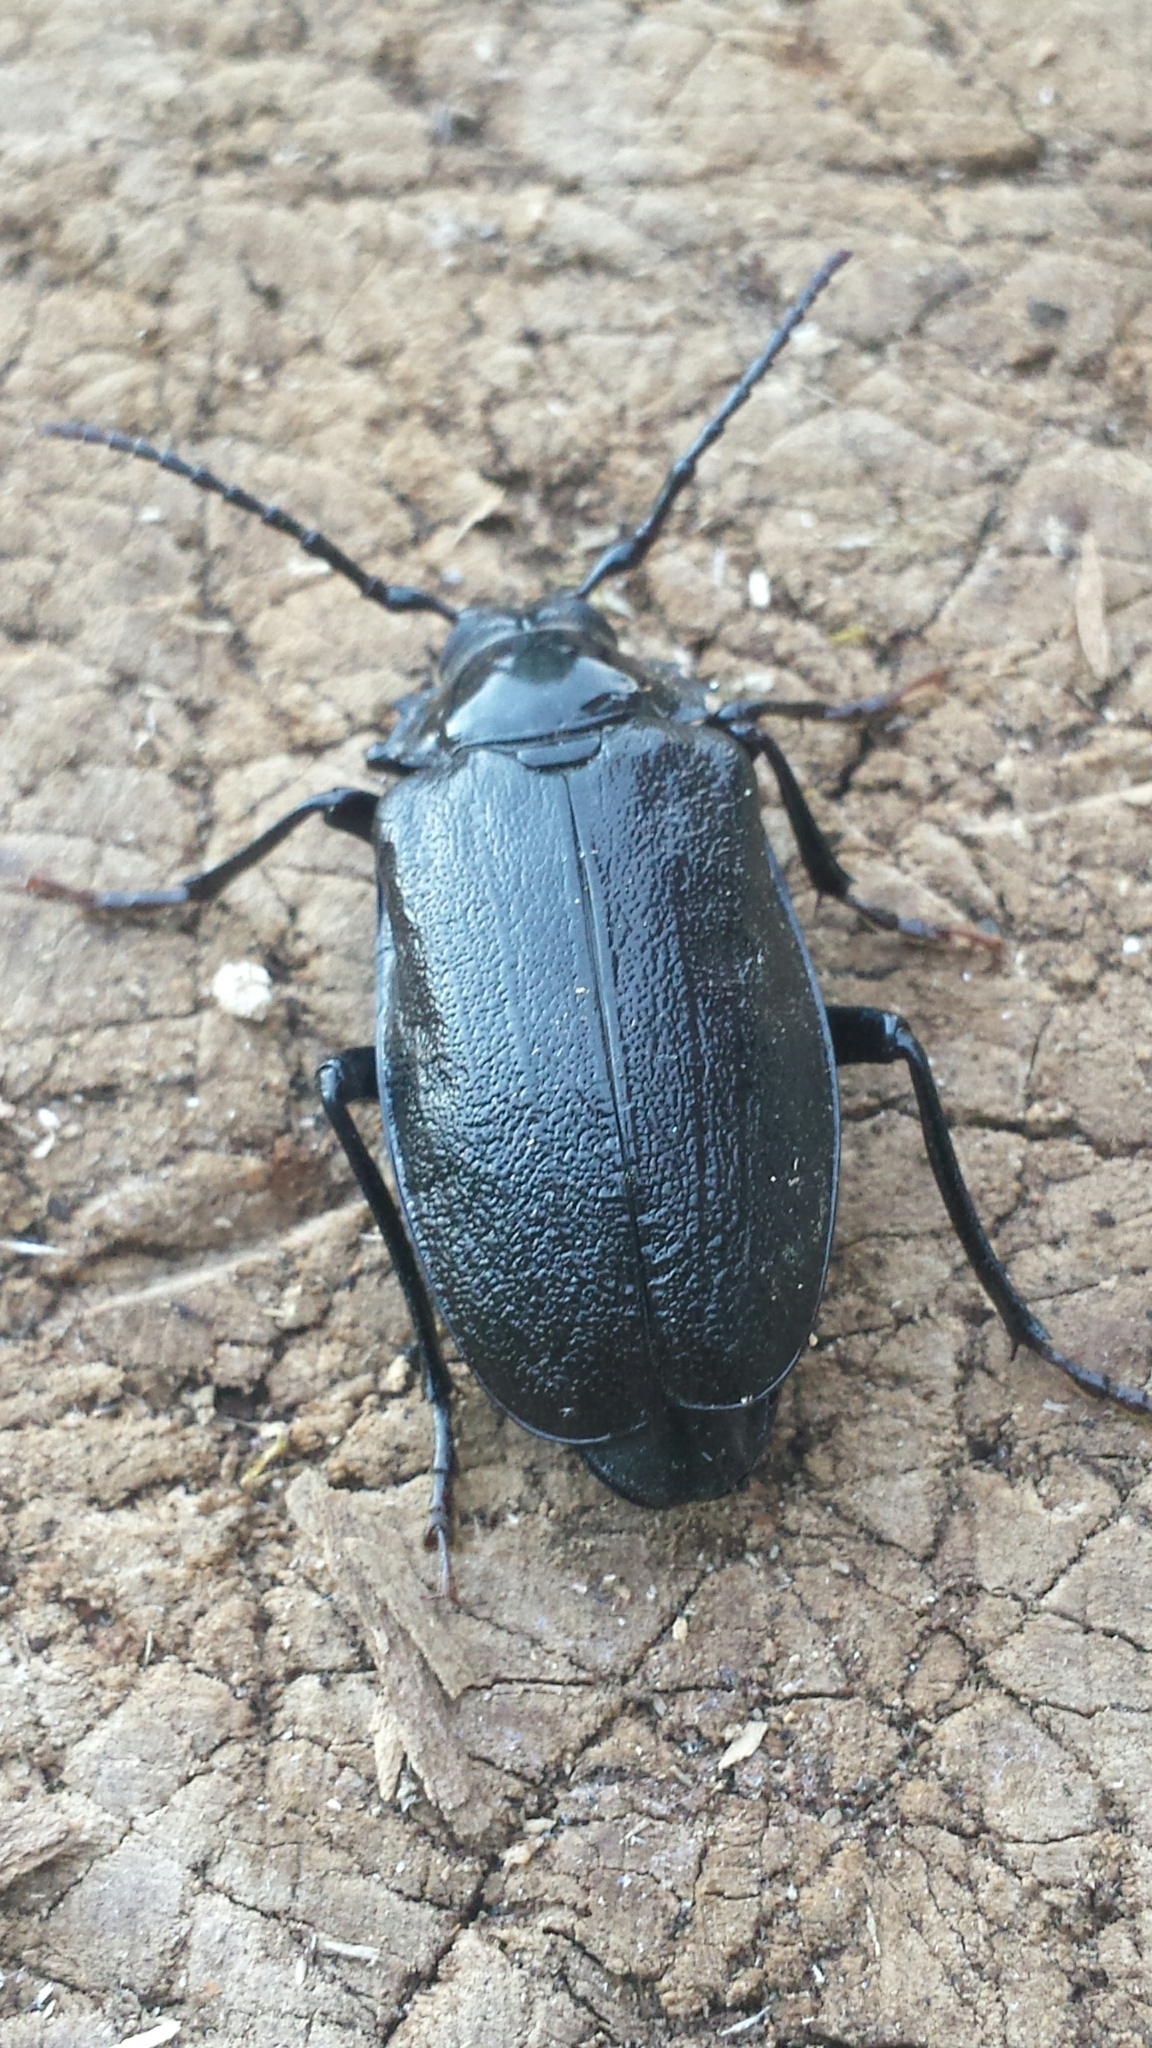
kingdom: Animalia
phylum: Arthropoda
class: Insecta
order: Coleoptera
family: Cerambycidae
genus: Prionus
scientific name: Prionus laticollis
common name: Broad necked prionus
